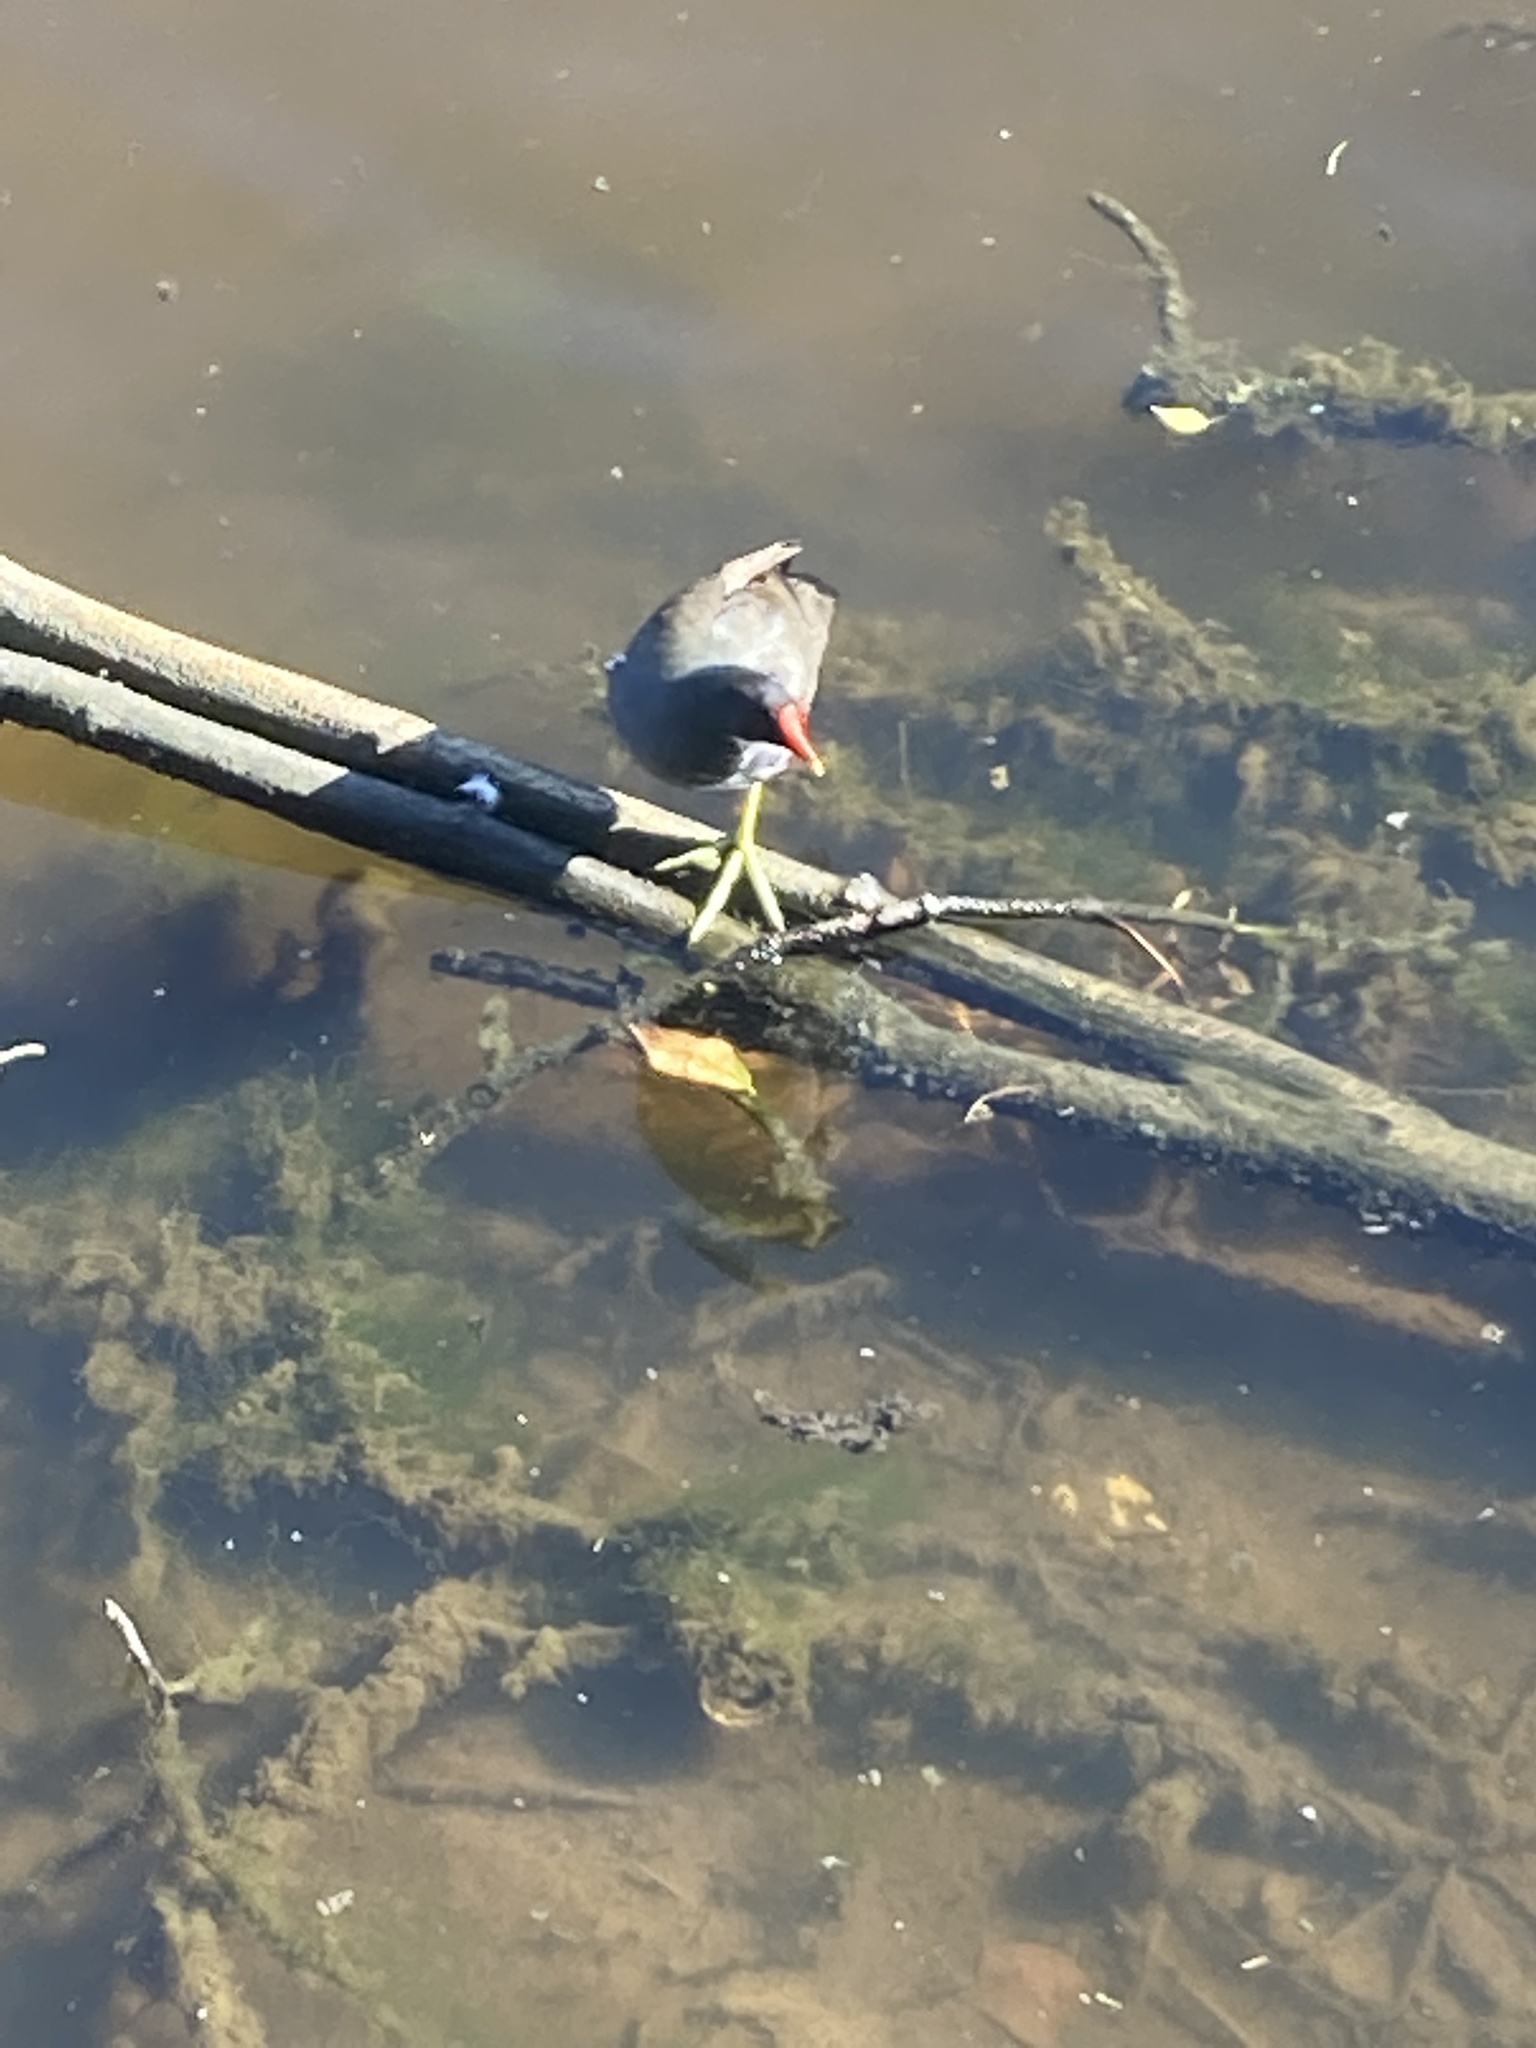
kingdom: Animalia
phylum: Chordata
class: Aves
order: Gruiformes
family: Rallidae
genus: Gallinula
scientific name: Gallinula chloropus
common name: Common moorhen
